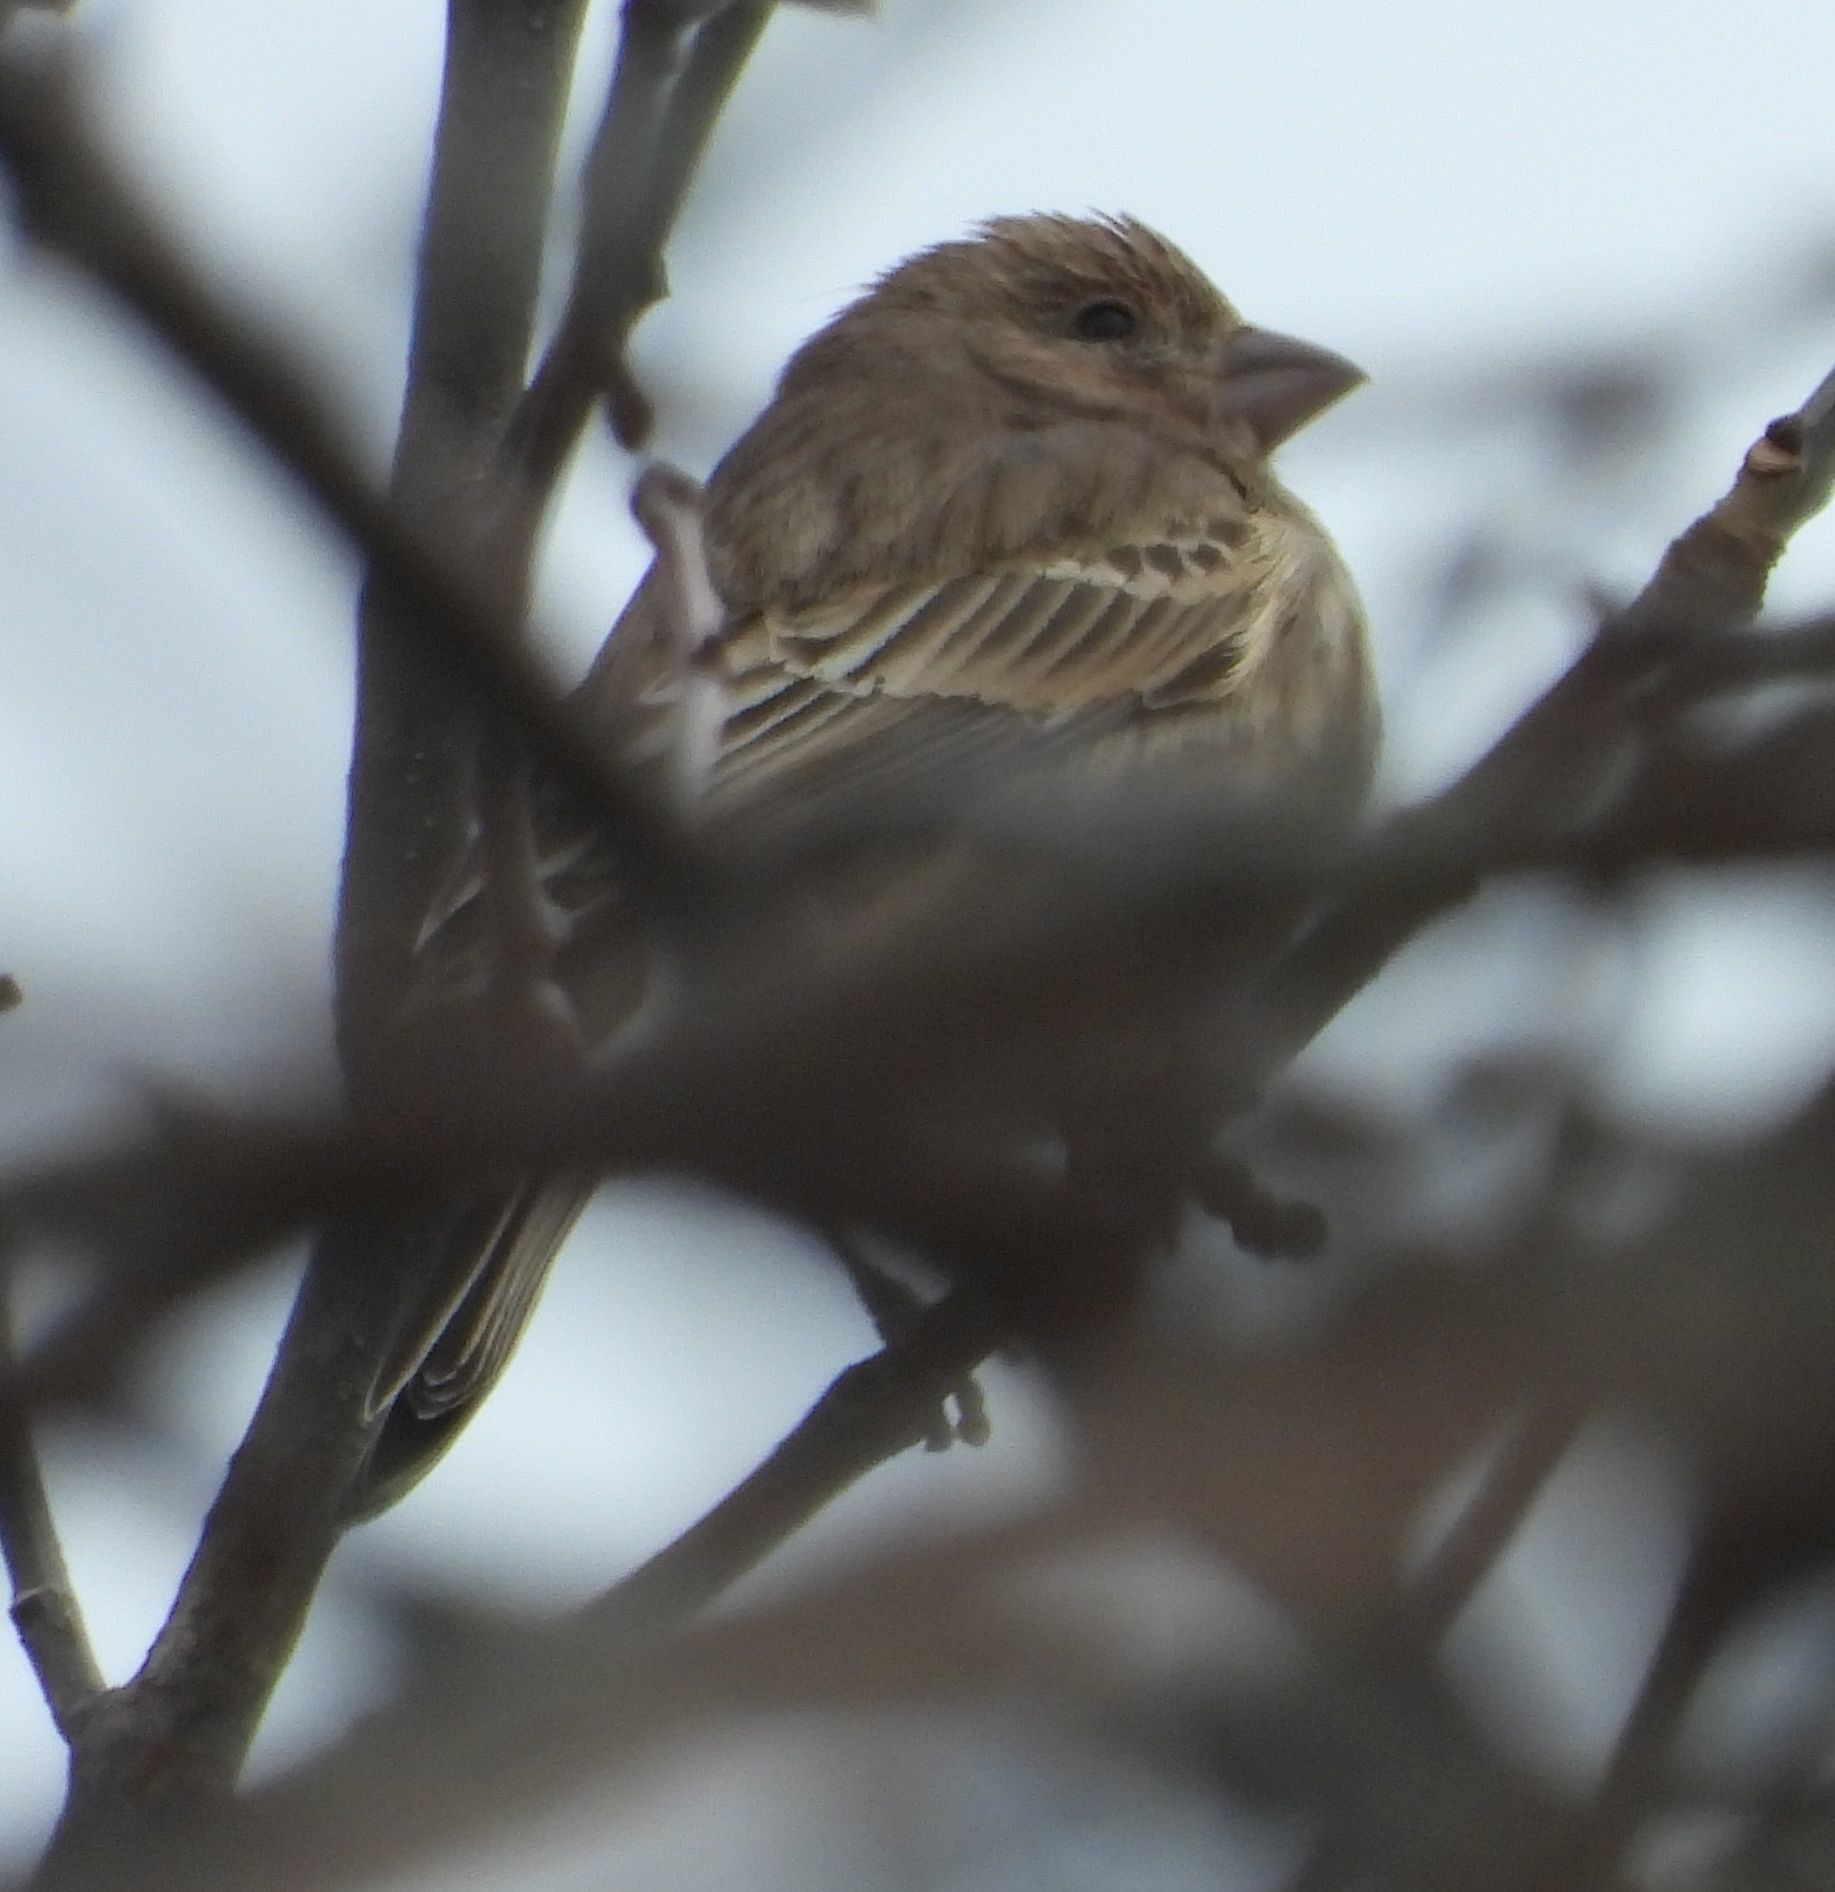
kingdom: Animalia
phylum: Chordata
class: Aves
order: Passeriformes
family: Fringillidae
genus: Haemorhous
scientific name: Haemorhous mexicanus
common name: House finch
